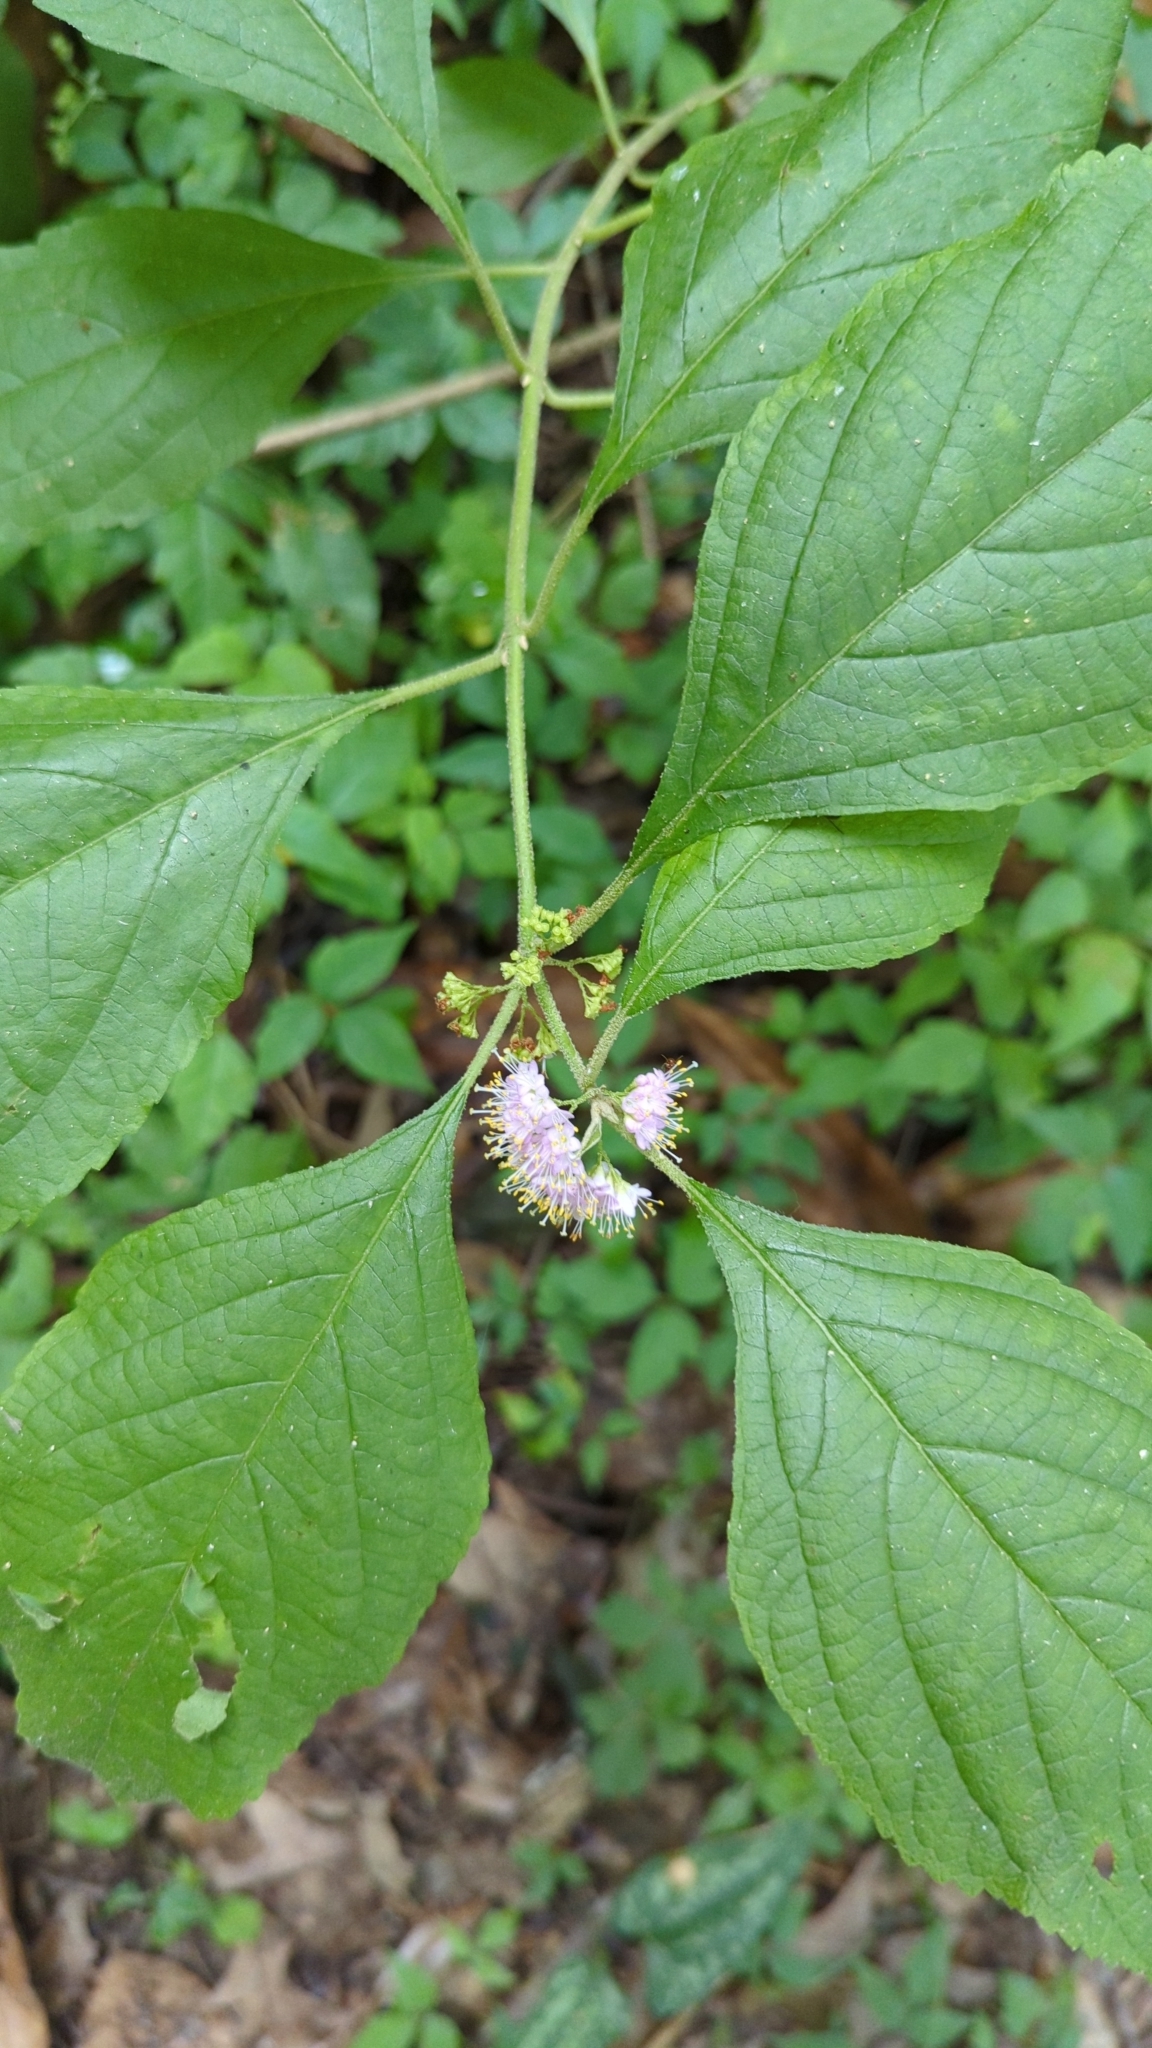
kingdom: Plantae
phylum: Tracheophyta
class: Magnoliopsida
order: Lamiales
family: Lamiaceae
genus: Callicarpa
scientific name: Callicarpa americana
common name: American beautyberry
